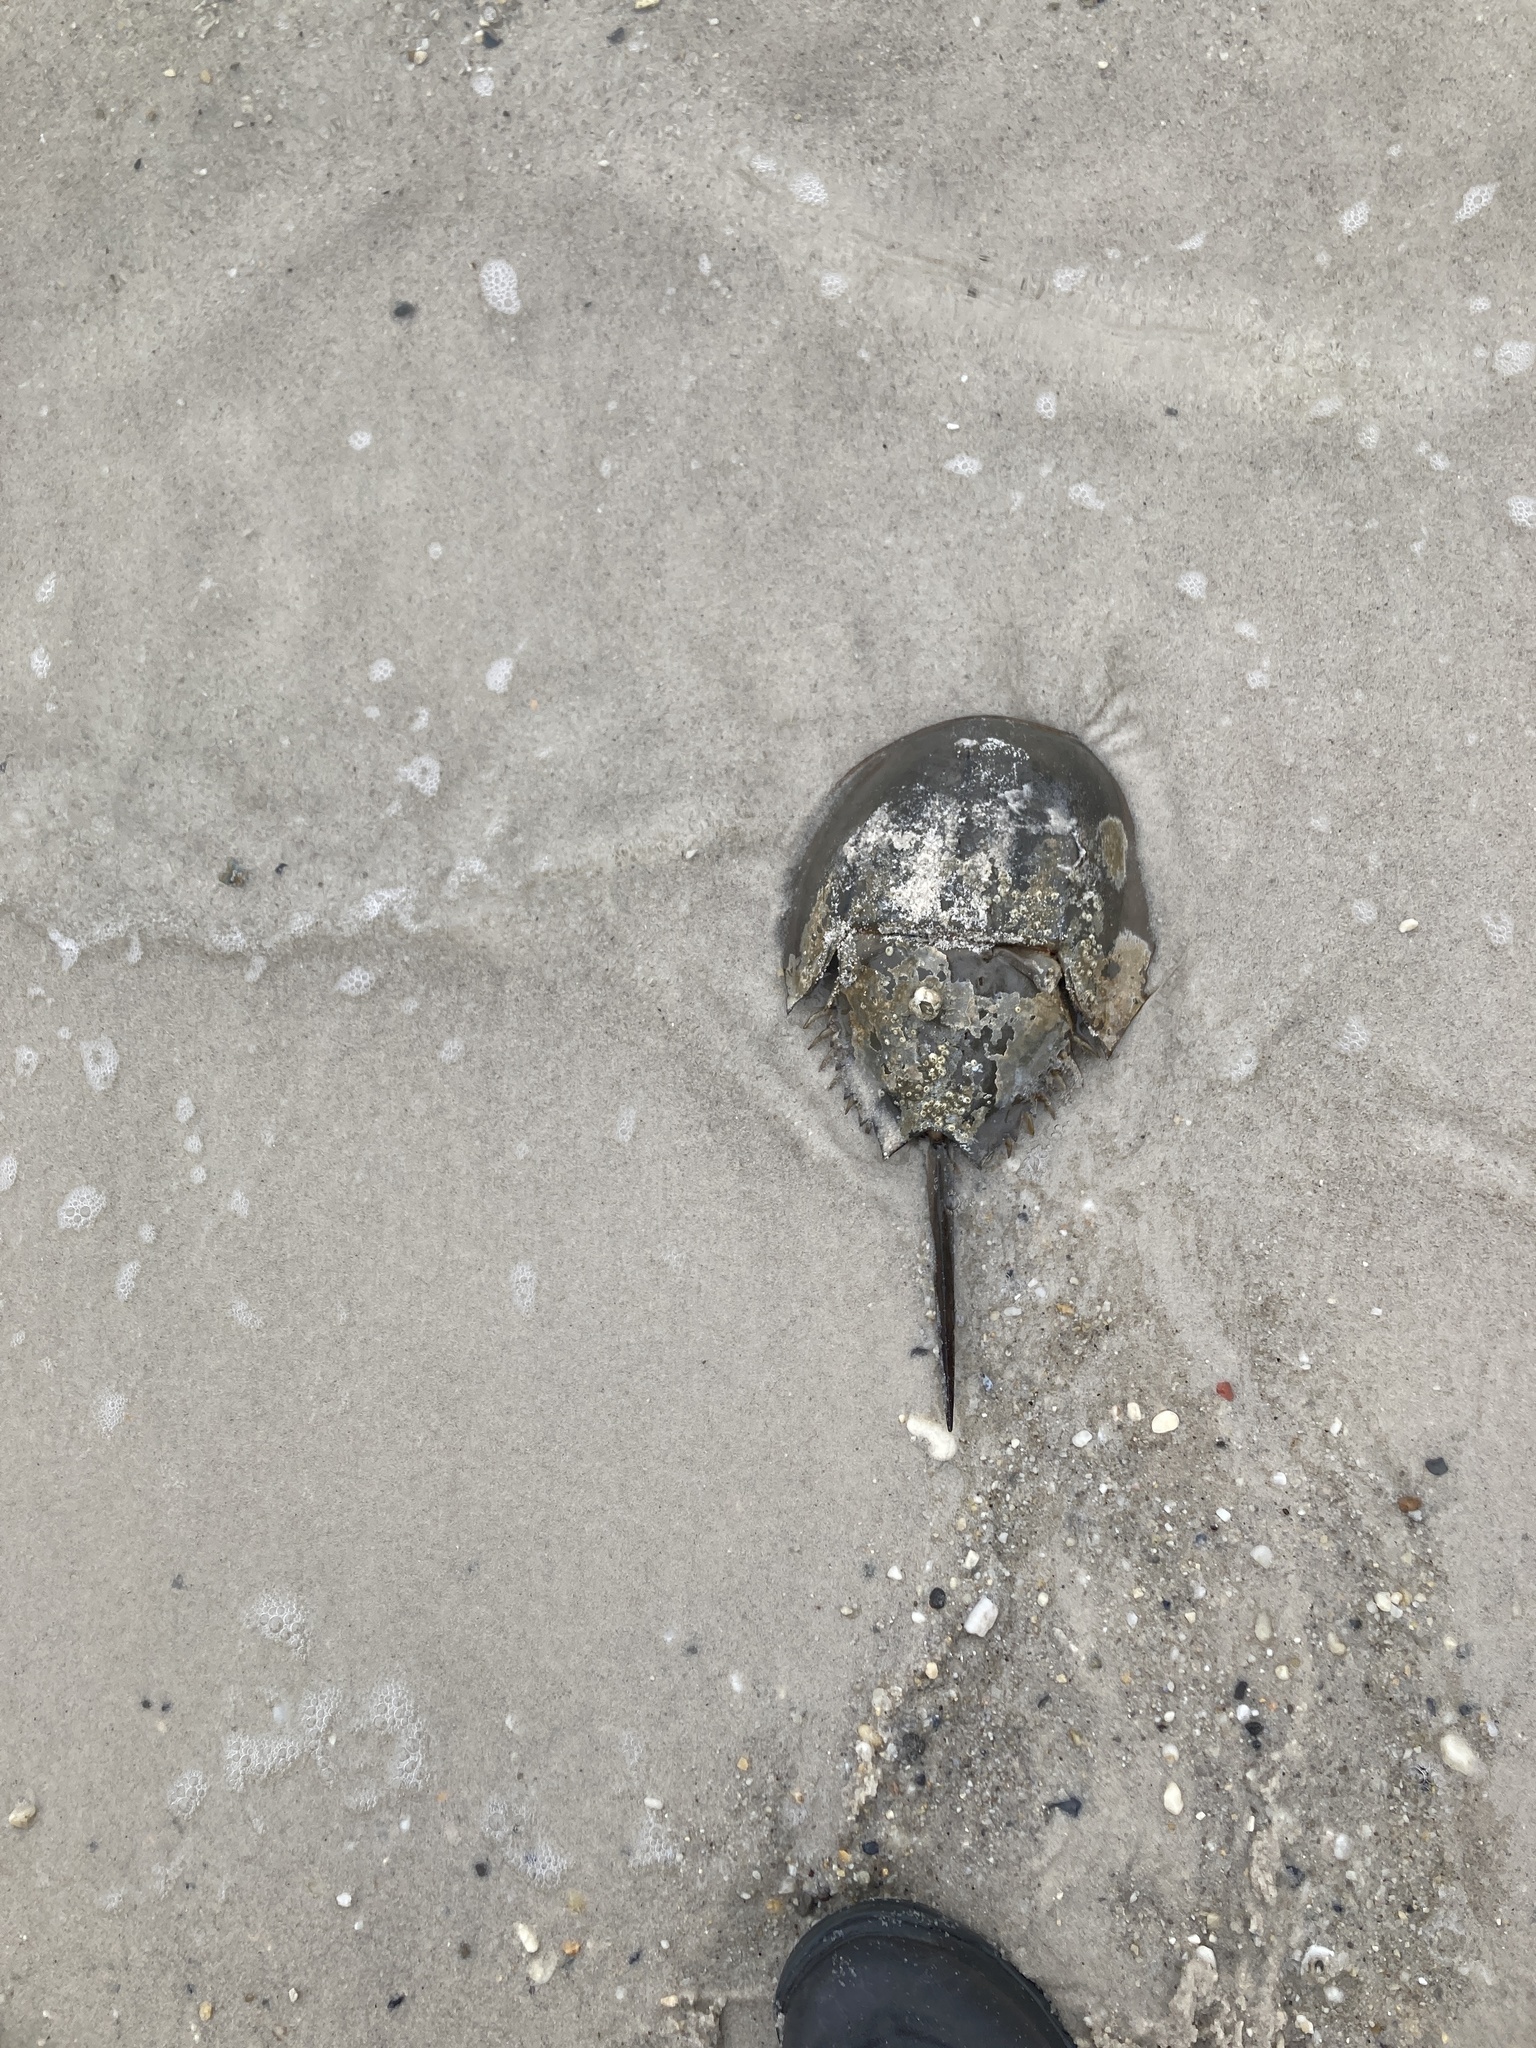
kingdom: Animalia
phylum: Arthropoda
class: Merostomata
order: Xiphosurida
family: Limulidae
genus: Limulus
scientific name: Limulus polyphemus
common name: Horseshoe crab
